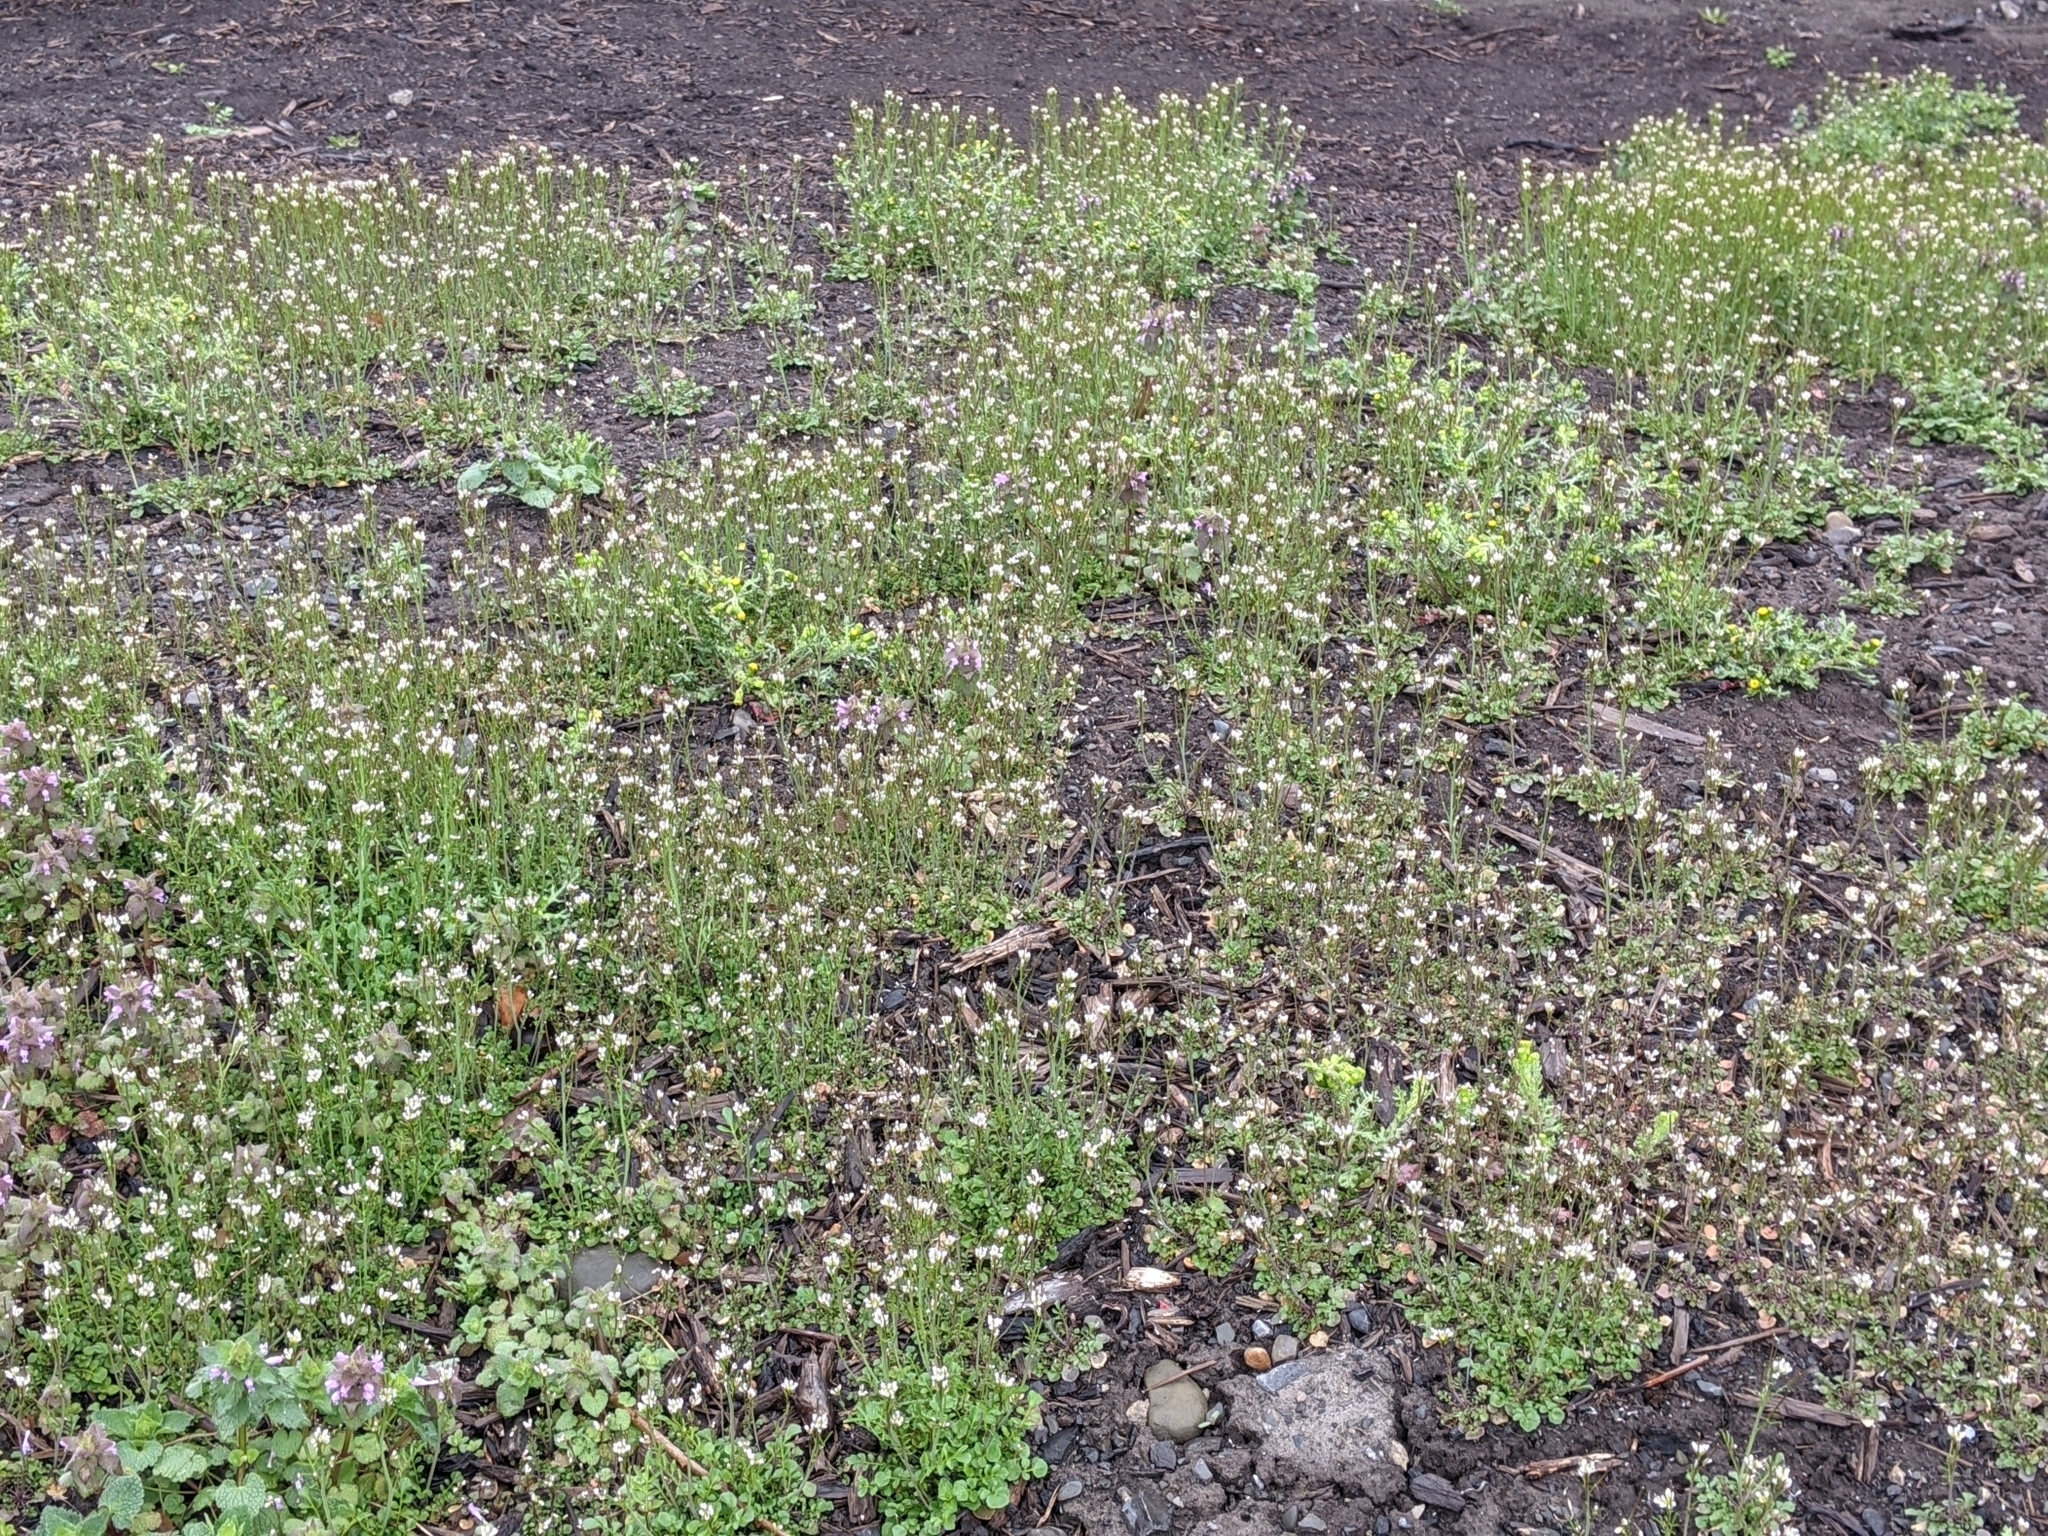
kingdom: Plantae
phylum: Tracheophyta
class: Magnoliopsida
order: Brassicales
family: Brassicaceae
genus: Cardamine
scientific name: Cardamine hirsuta
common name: Hairy bittercress
